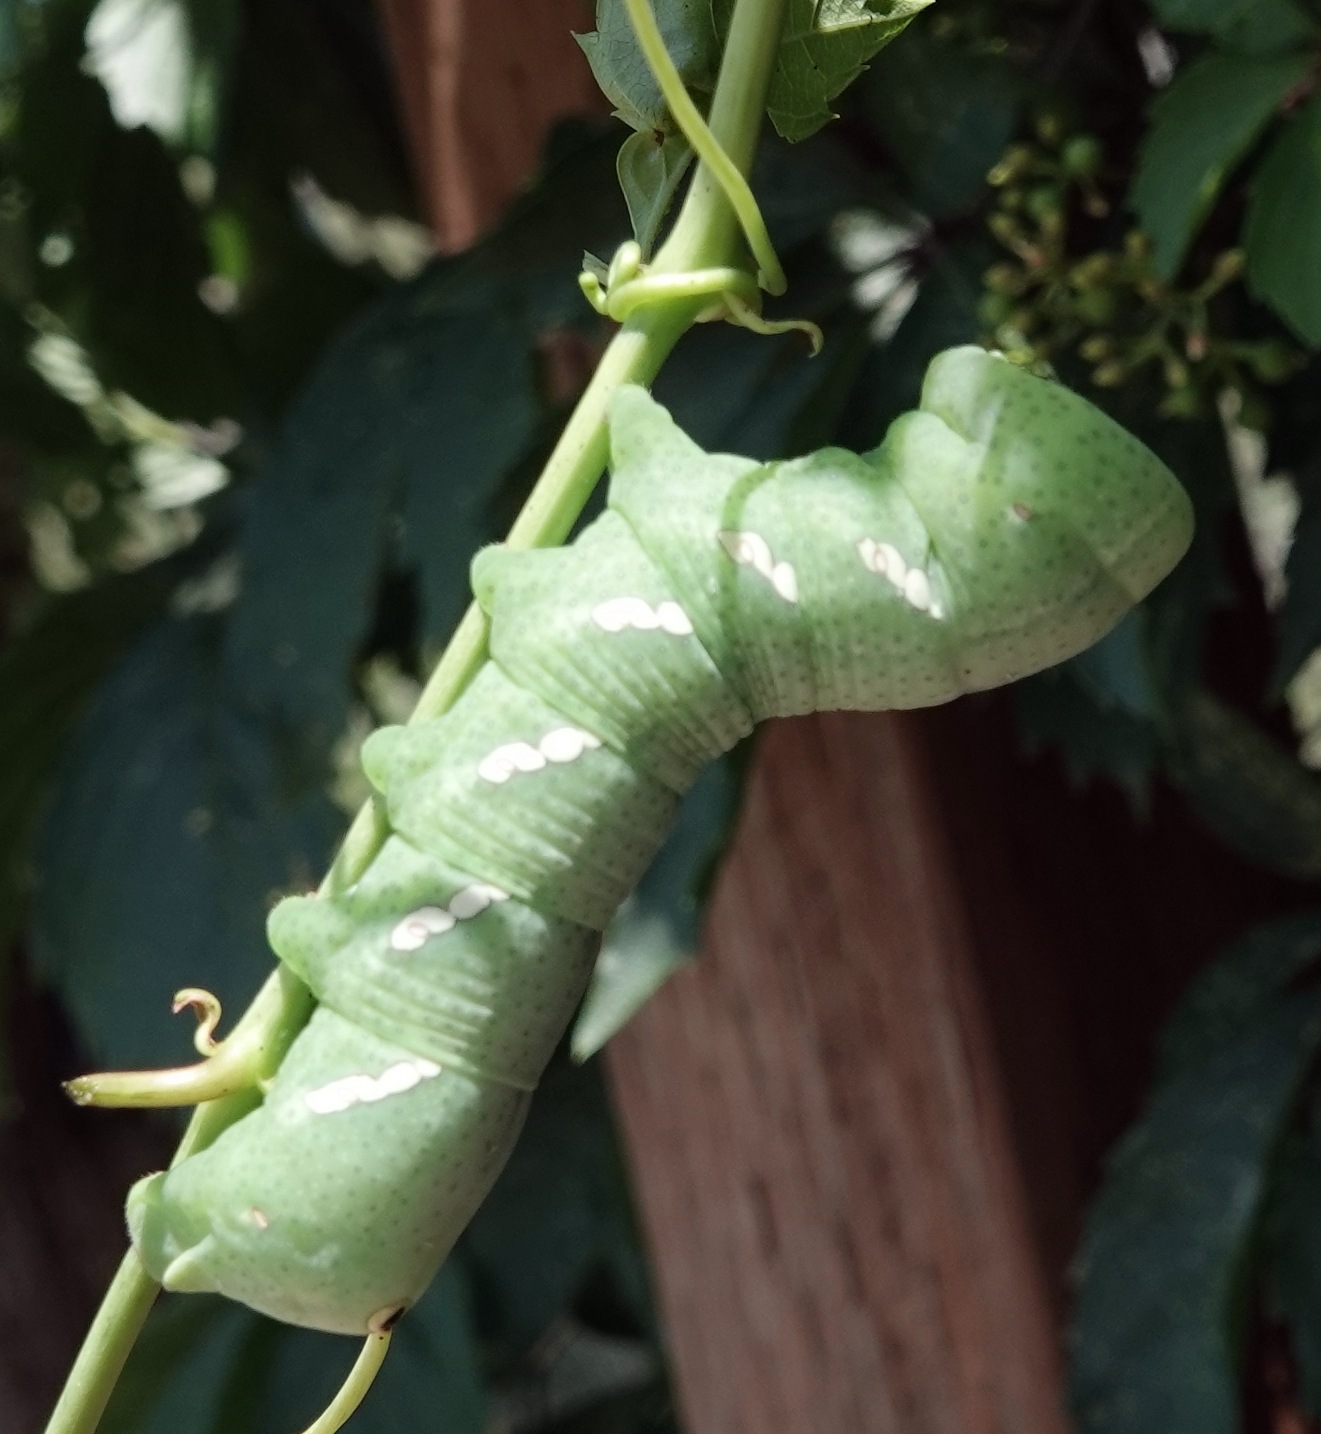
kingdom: Animalia
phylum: Arthropoda
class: Insecta
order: Lepidoptera
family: Sphingidae
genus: Eumorpha
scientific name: Eumorpha achemon
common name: Achemon sphinx
